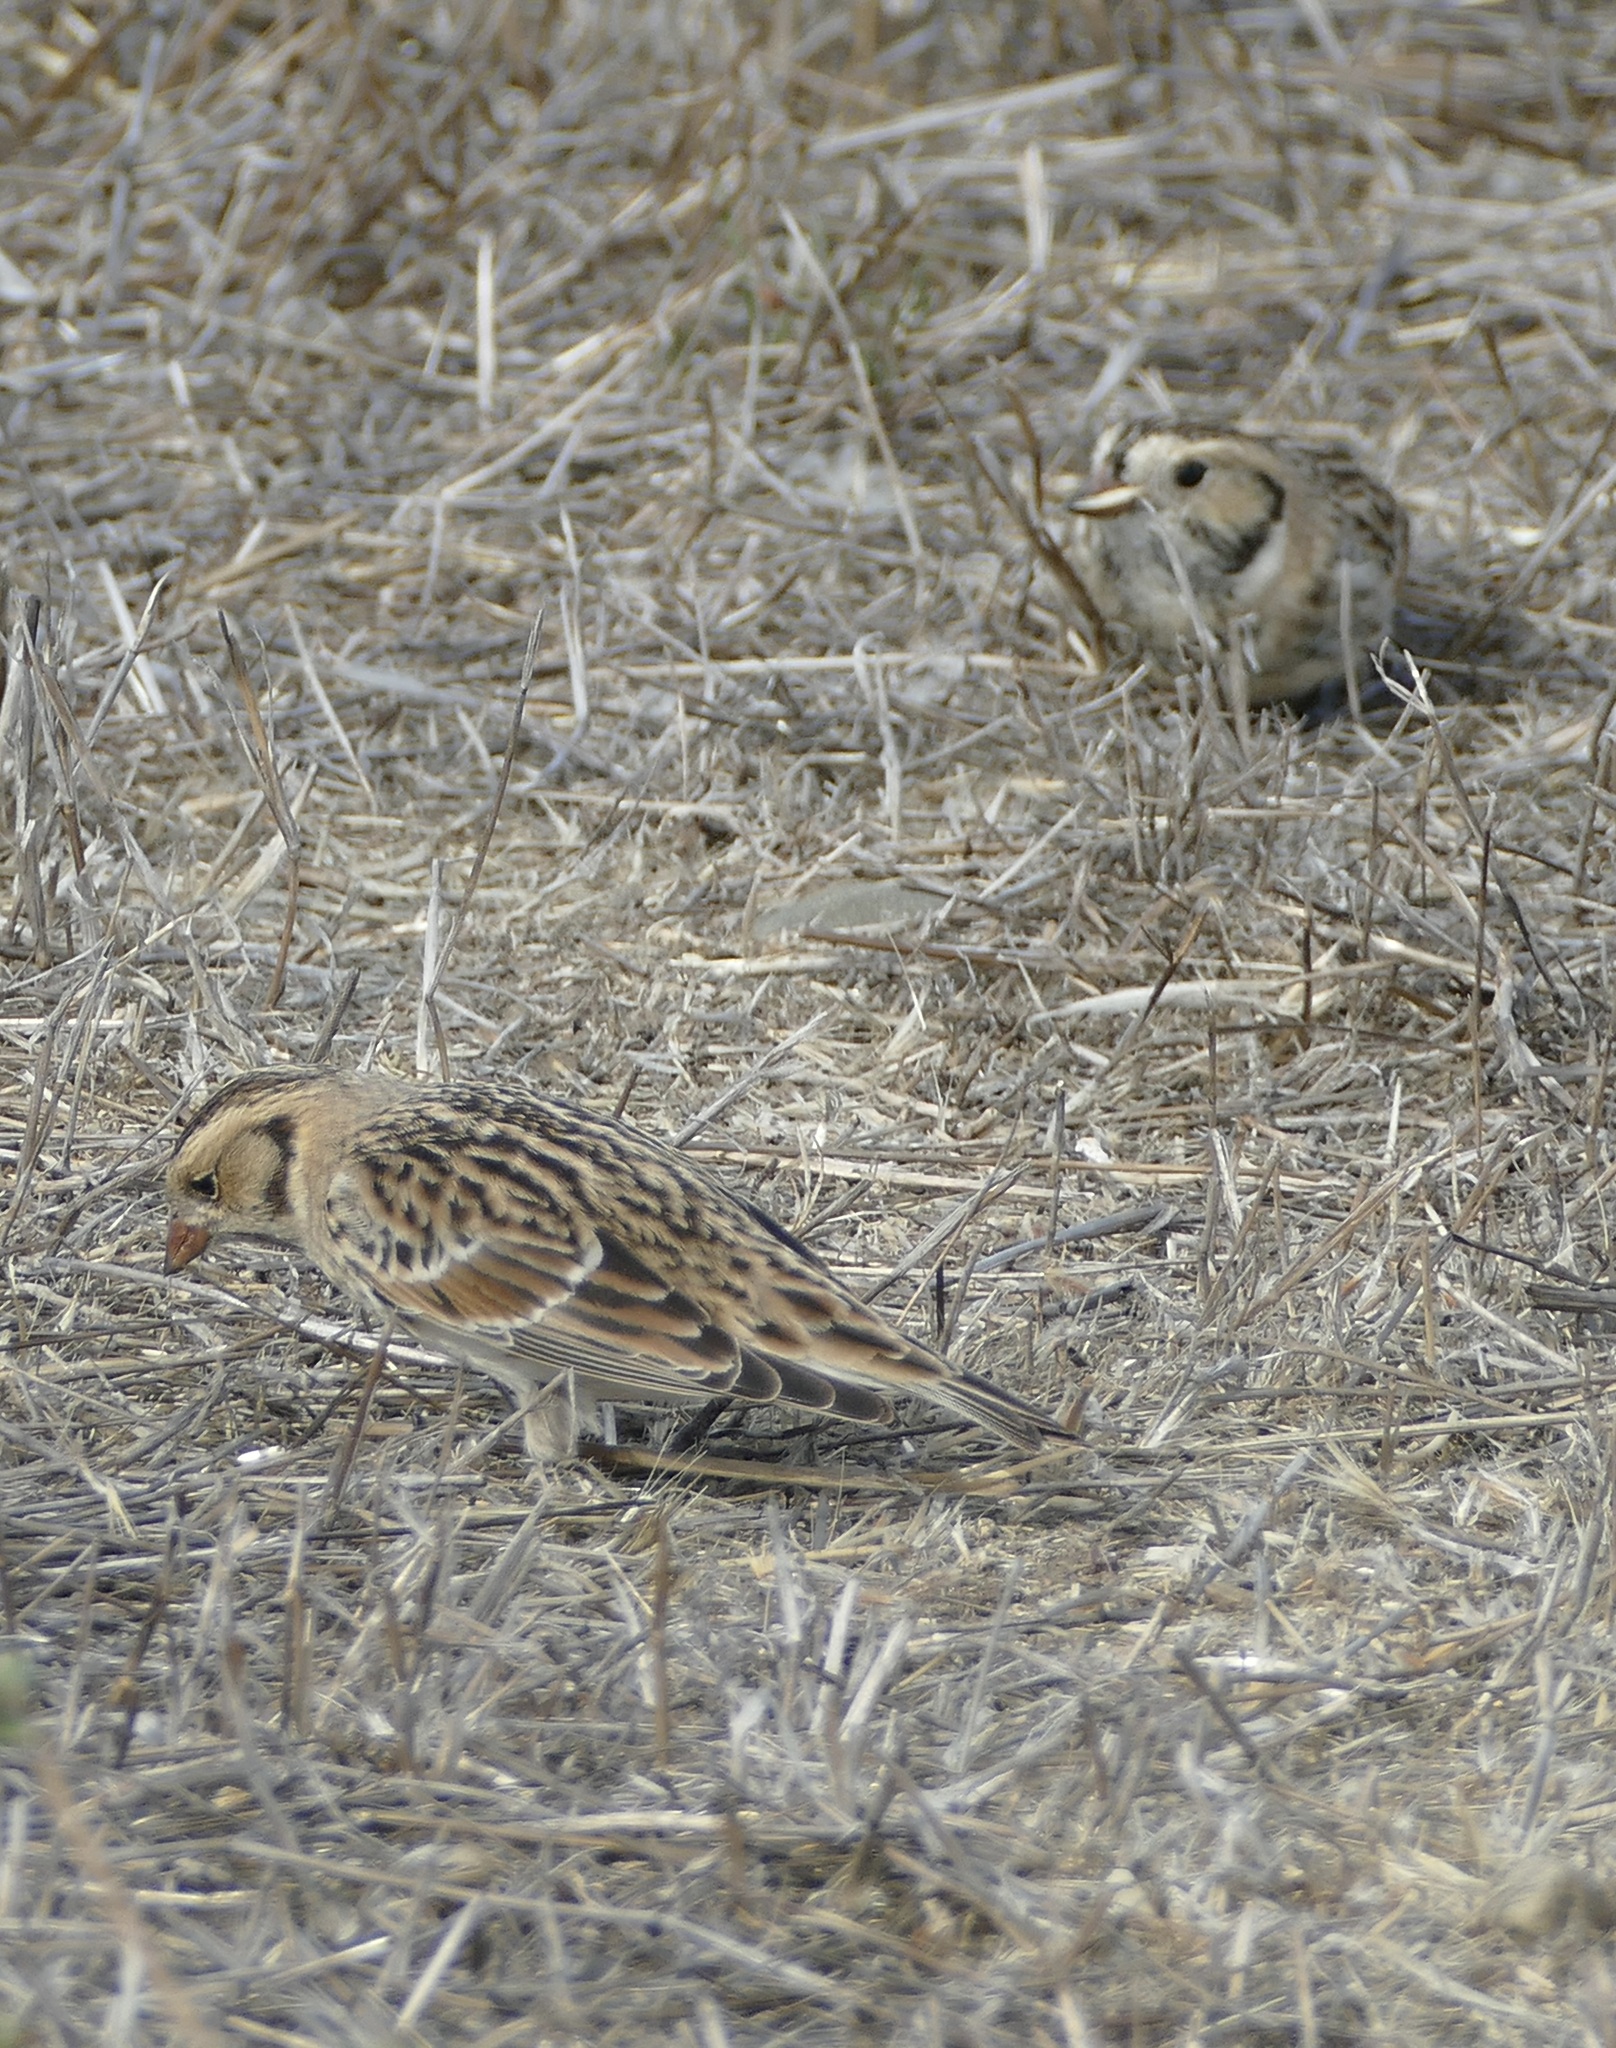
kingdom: Animalia
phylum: Chordata
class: Aves
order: Passeriformes
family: Calcariidae
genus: Calcarius
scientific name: Calcarius lapponicus
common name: Lapland longspur
